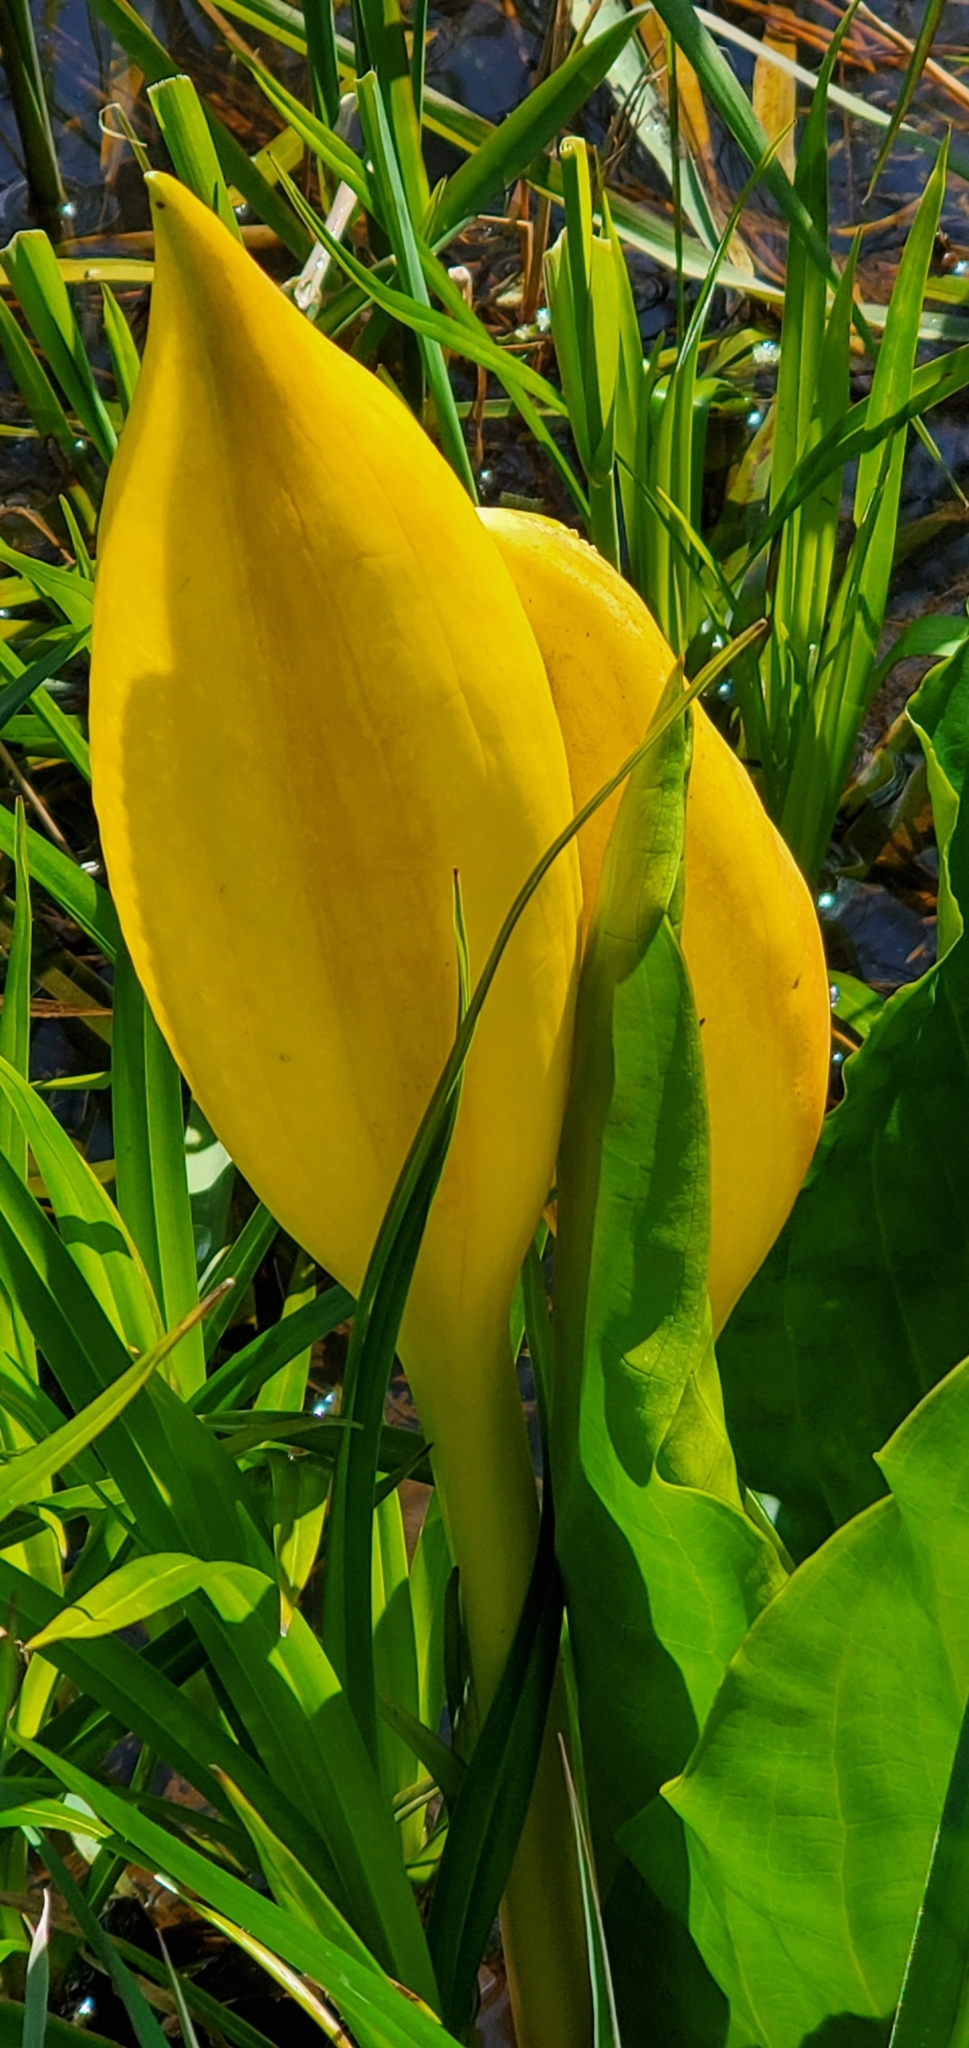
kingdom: Plantae
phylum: Tracheophyta
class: Liliopsida
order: Alismatales
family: Araceae
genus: Lysichiton
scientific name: Lysichiton americanus
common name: American skunk cabbage
